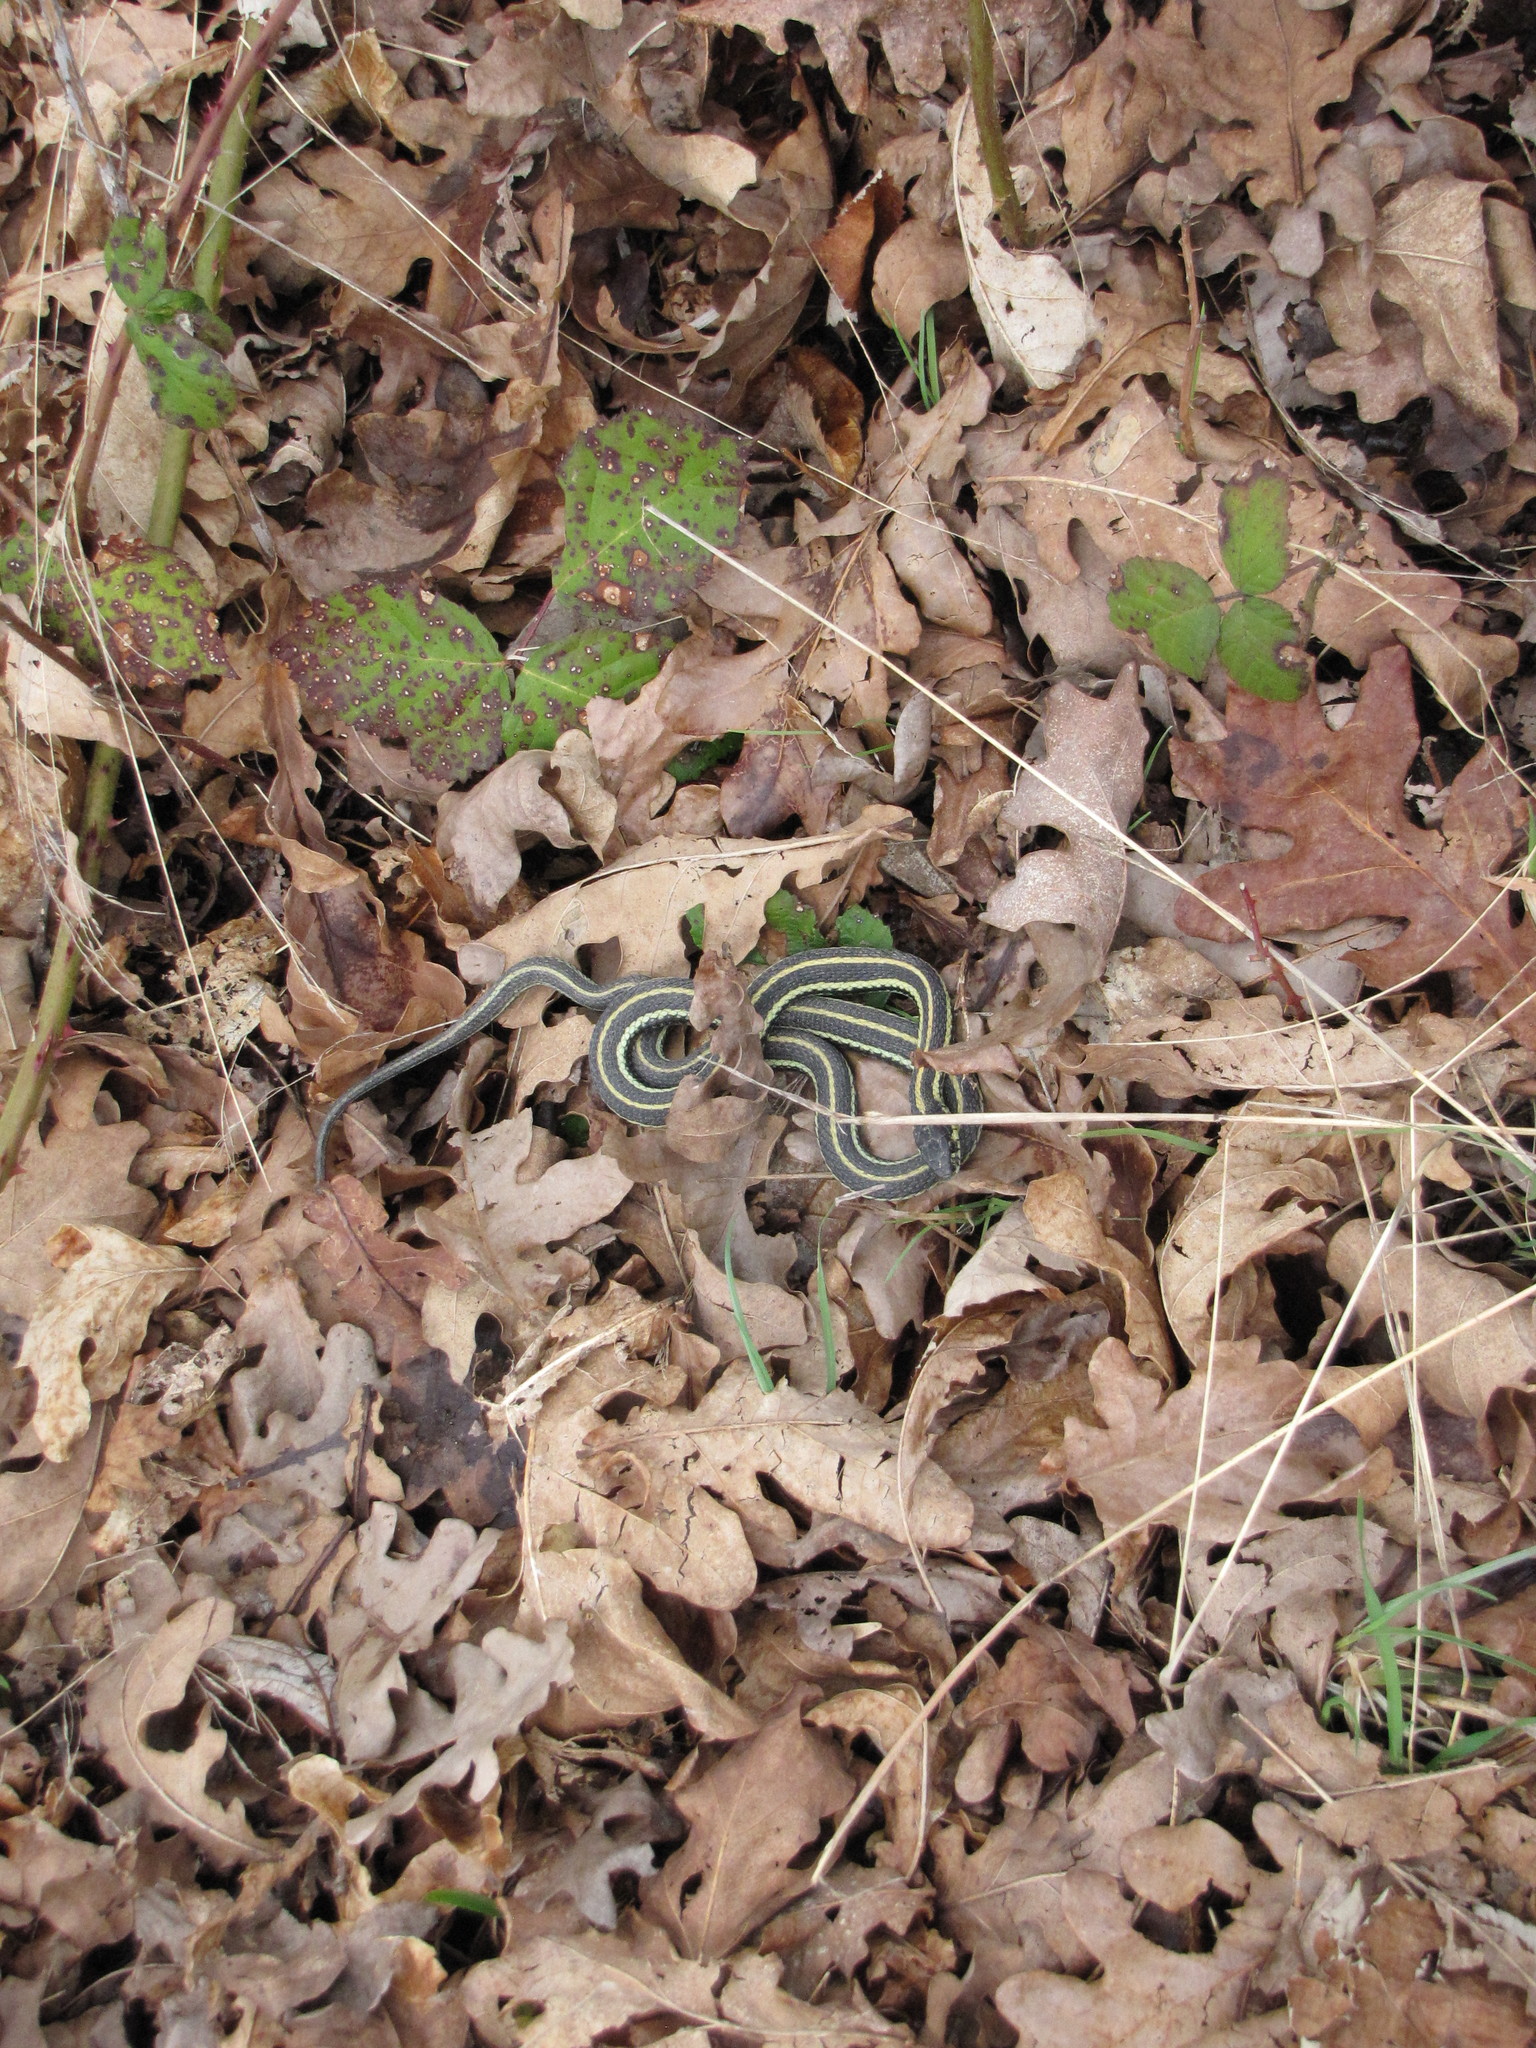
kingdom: Animalia
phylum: Chordata
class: Squamata
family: Colubridae
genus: Thamnophis
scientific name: Thamnophis sirtalis
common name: Common garter snake
